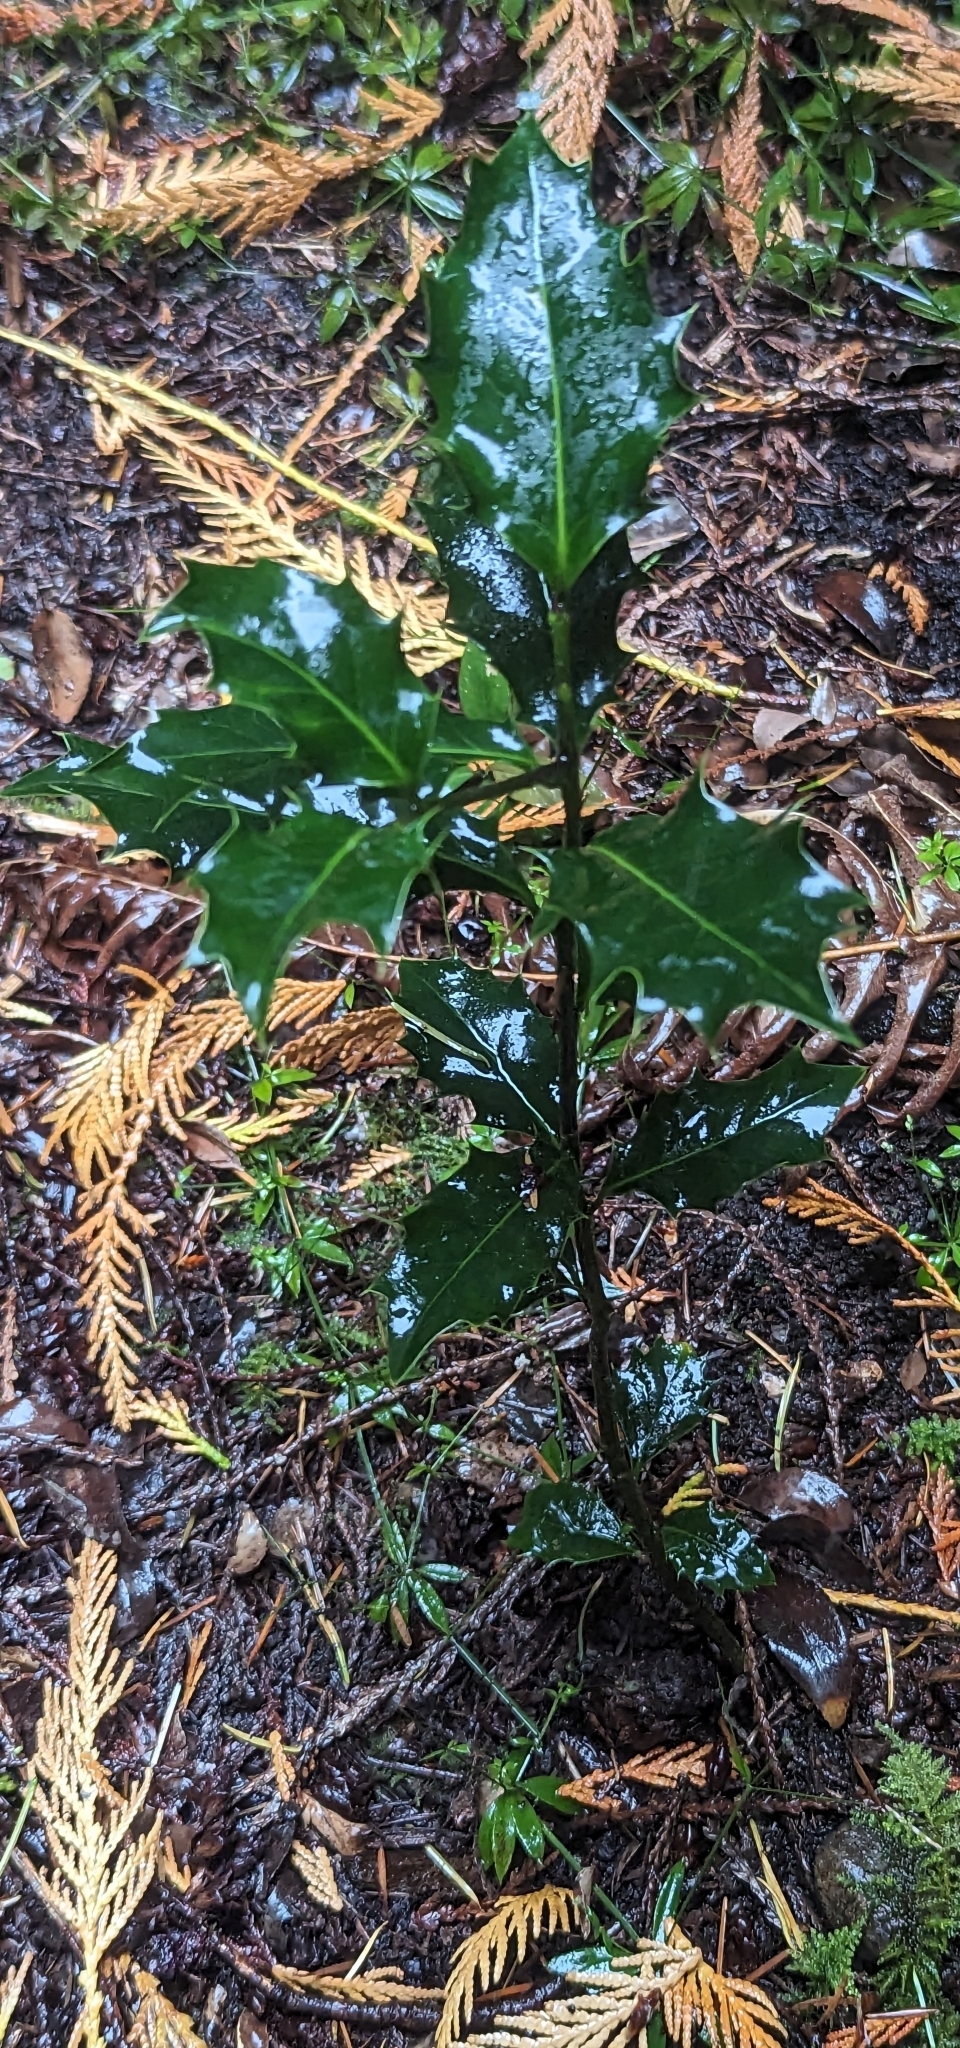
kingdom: Plantae
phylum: Tracheophyta
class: Magnoliopsida
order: Aquifoliales
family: Aquifoliaceae
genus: Ilex
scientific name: Ilex aquifolium
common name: English holly
